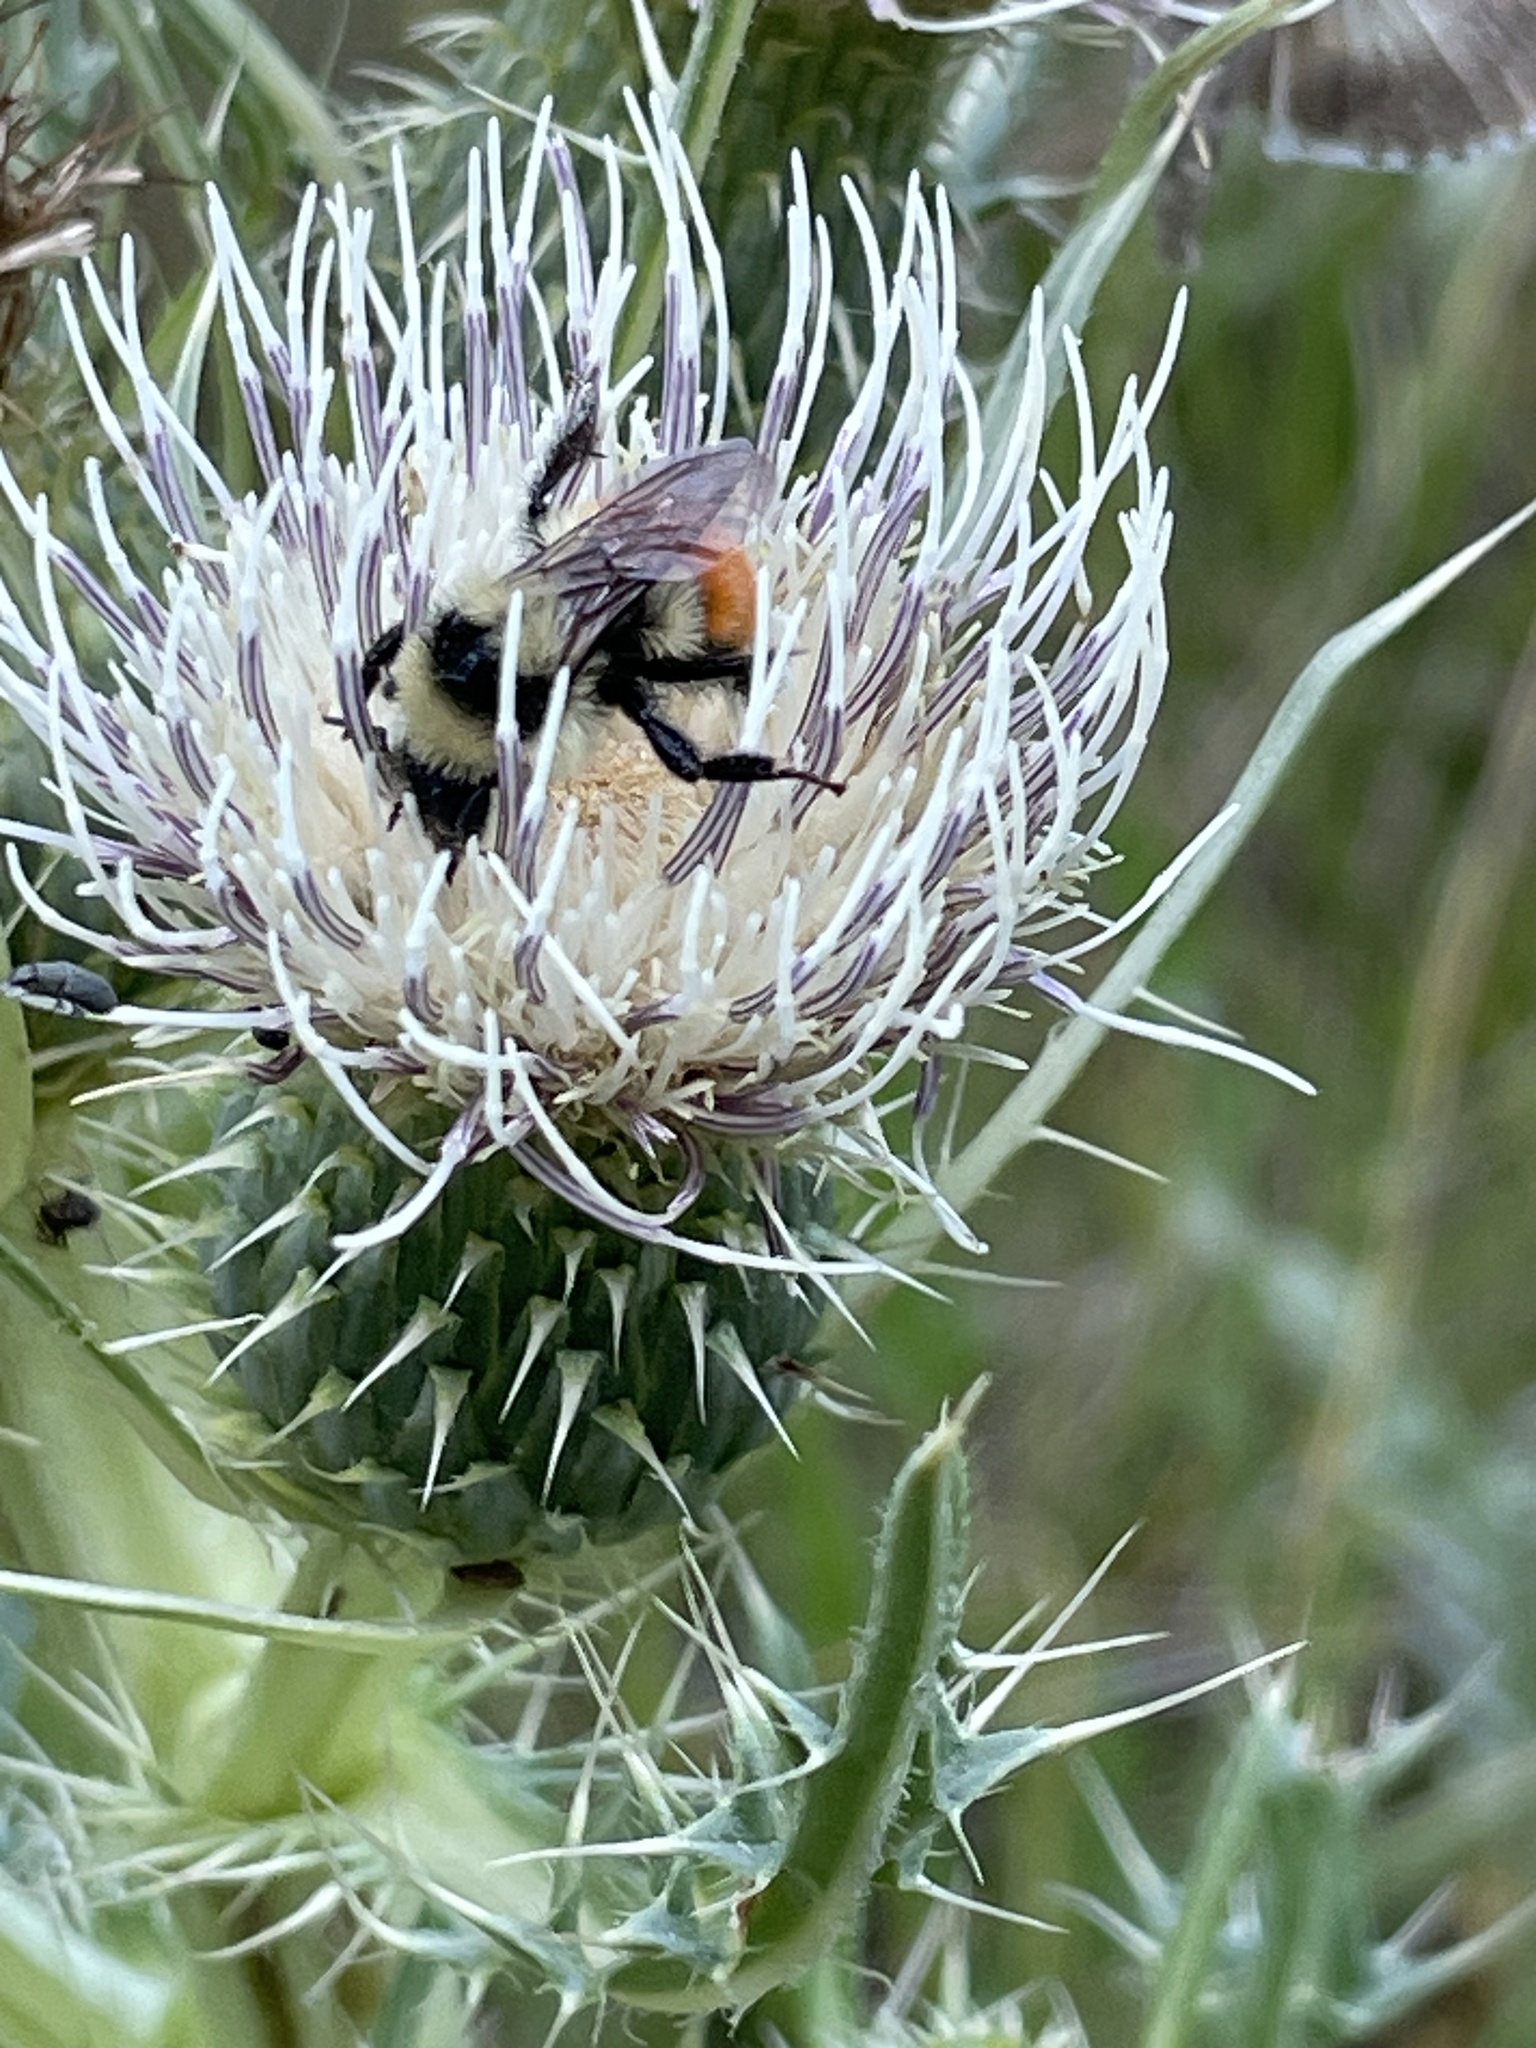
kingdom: Animalia
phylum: Arthropoda
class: Insecta
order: Hymenoptera
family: Apidae
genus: Bombus
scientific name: Bombus centralis
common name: Central bumble bee
